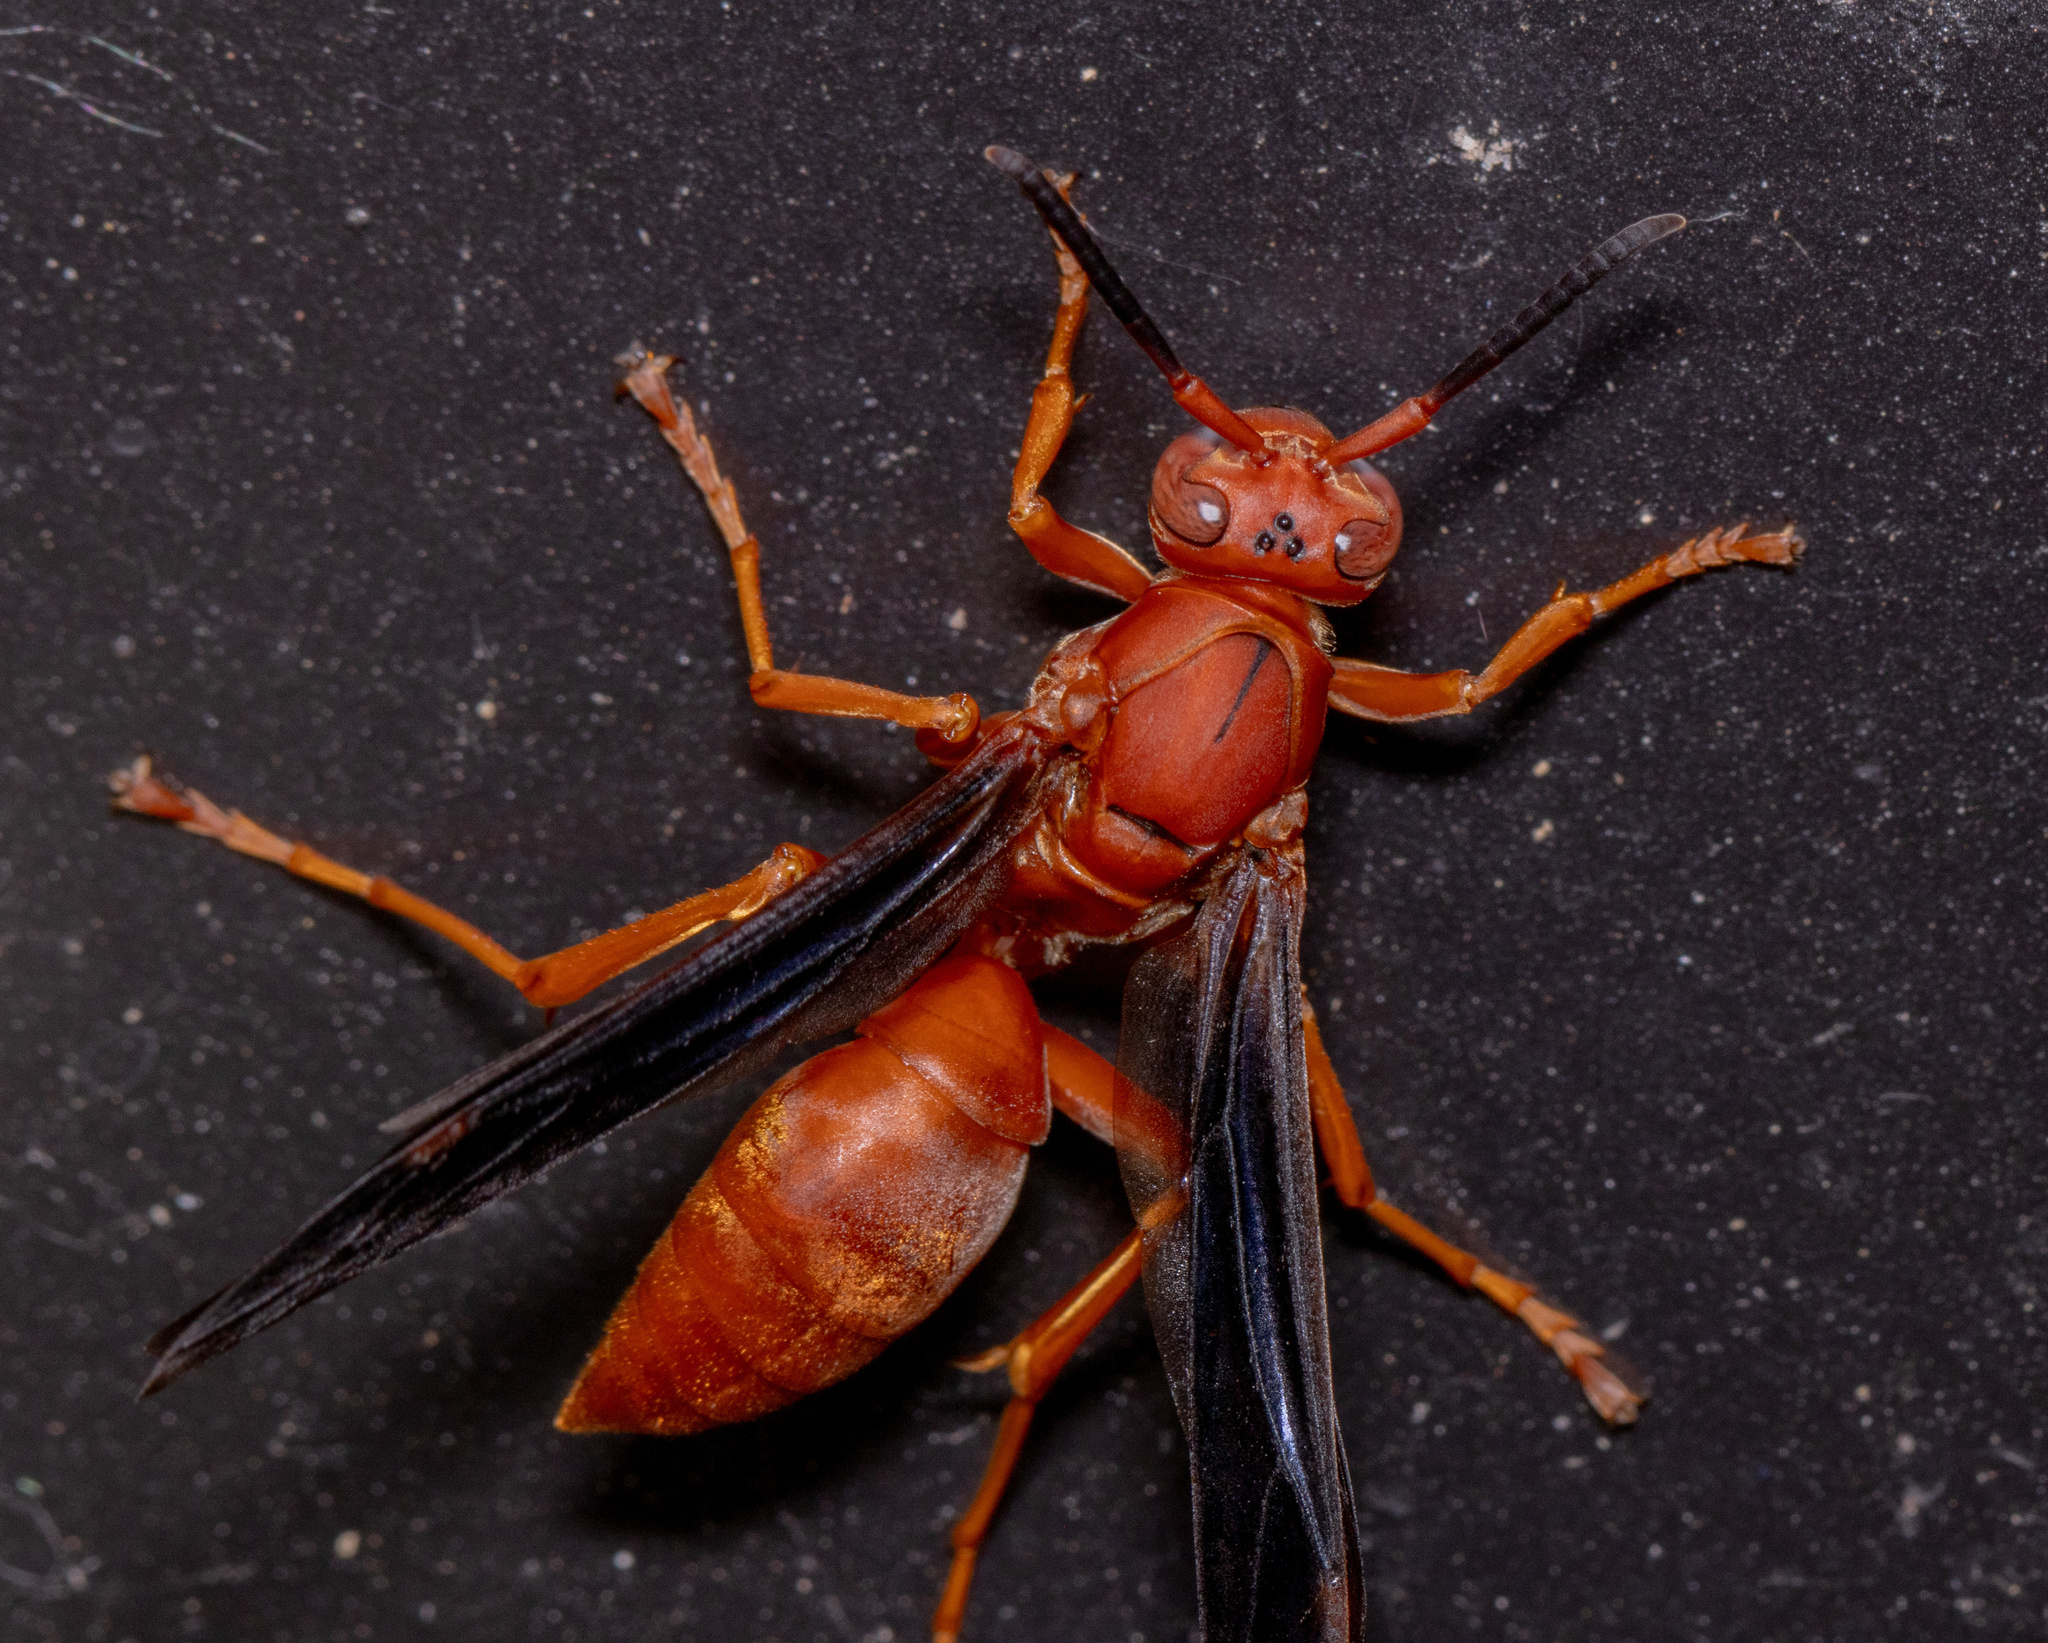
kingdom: Animalia
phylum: Arthropoda
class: Insecta
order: Hymenoptera
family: Vespidae
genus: Fuscopolistes
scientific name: Fuscopolistes
